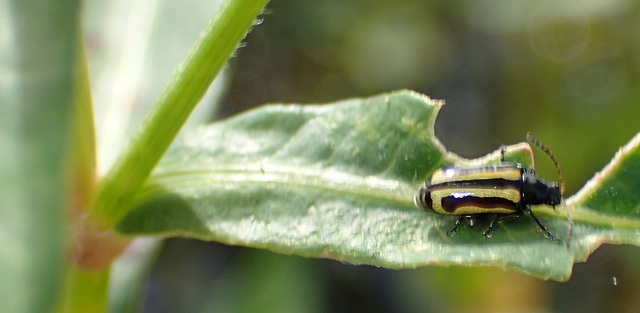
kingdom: Animalia
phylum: Arthropoda
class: Insecta
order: Coleoptera
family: Chrysomelidae
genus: Agasicles
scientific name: Agasicles hygrophila
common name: Alligatorweed flea beetle
